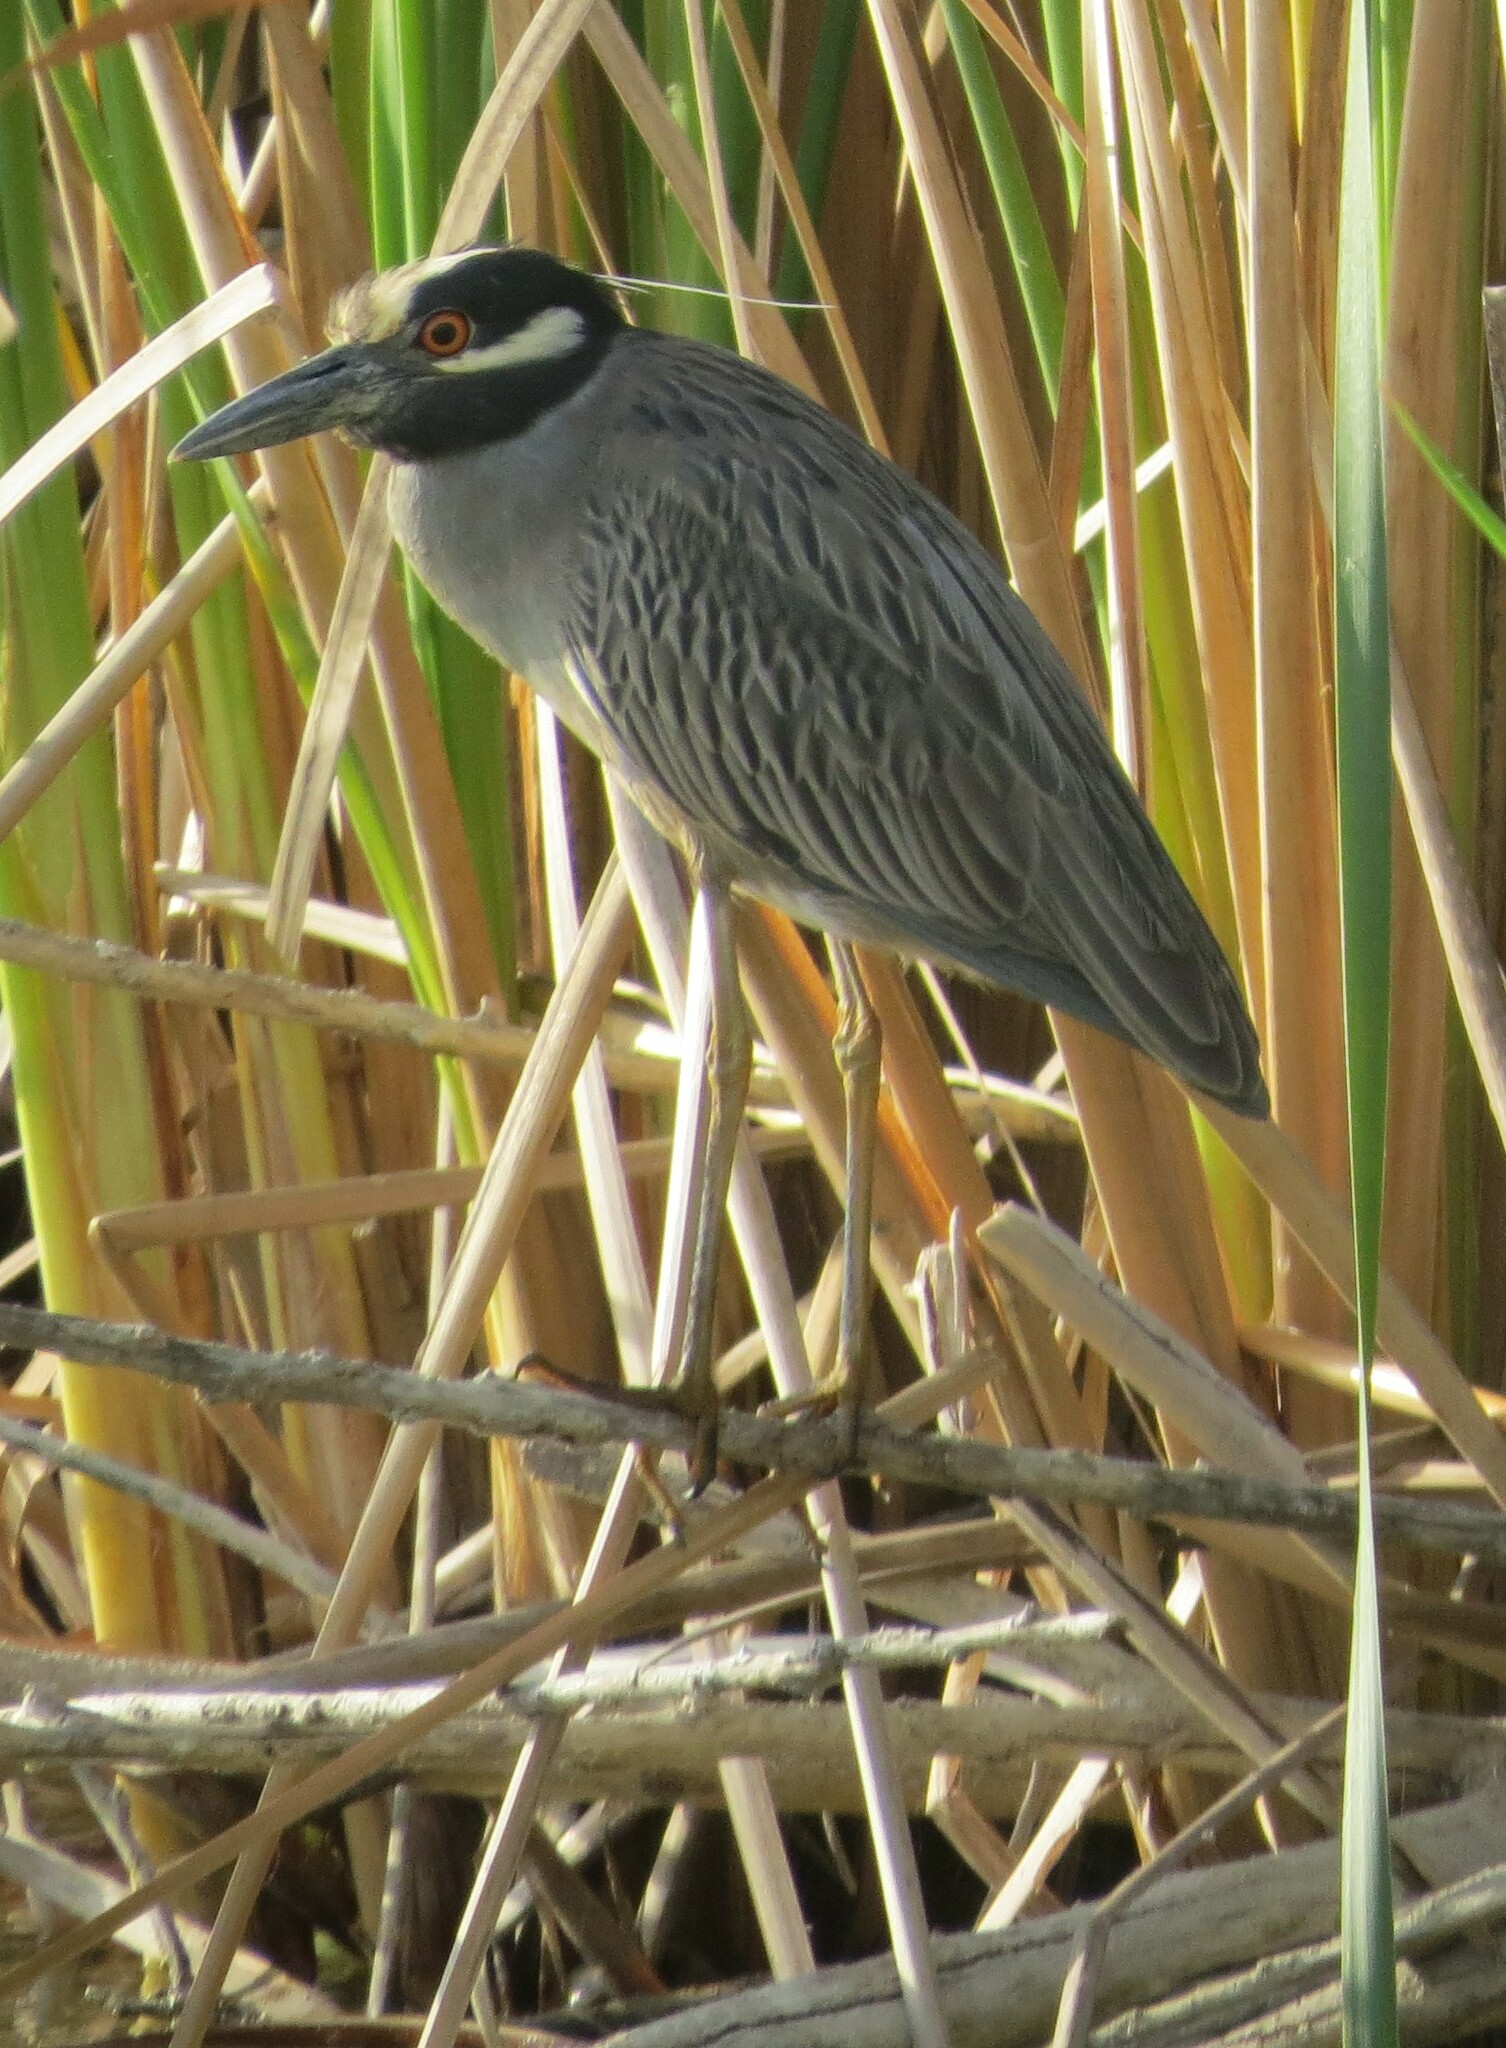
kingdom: Animalia
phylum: Chordata
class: Aves
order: Pelecaniformes
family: Ardeidae
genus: Nyctanassa
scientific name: Nyctanassa violacea
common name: Yellow-crowned night heron
